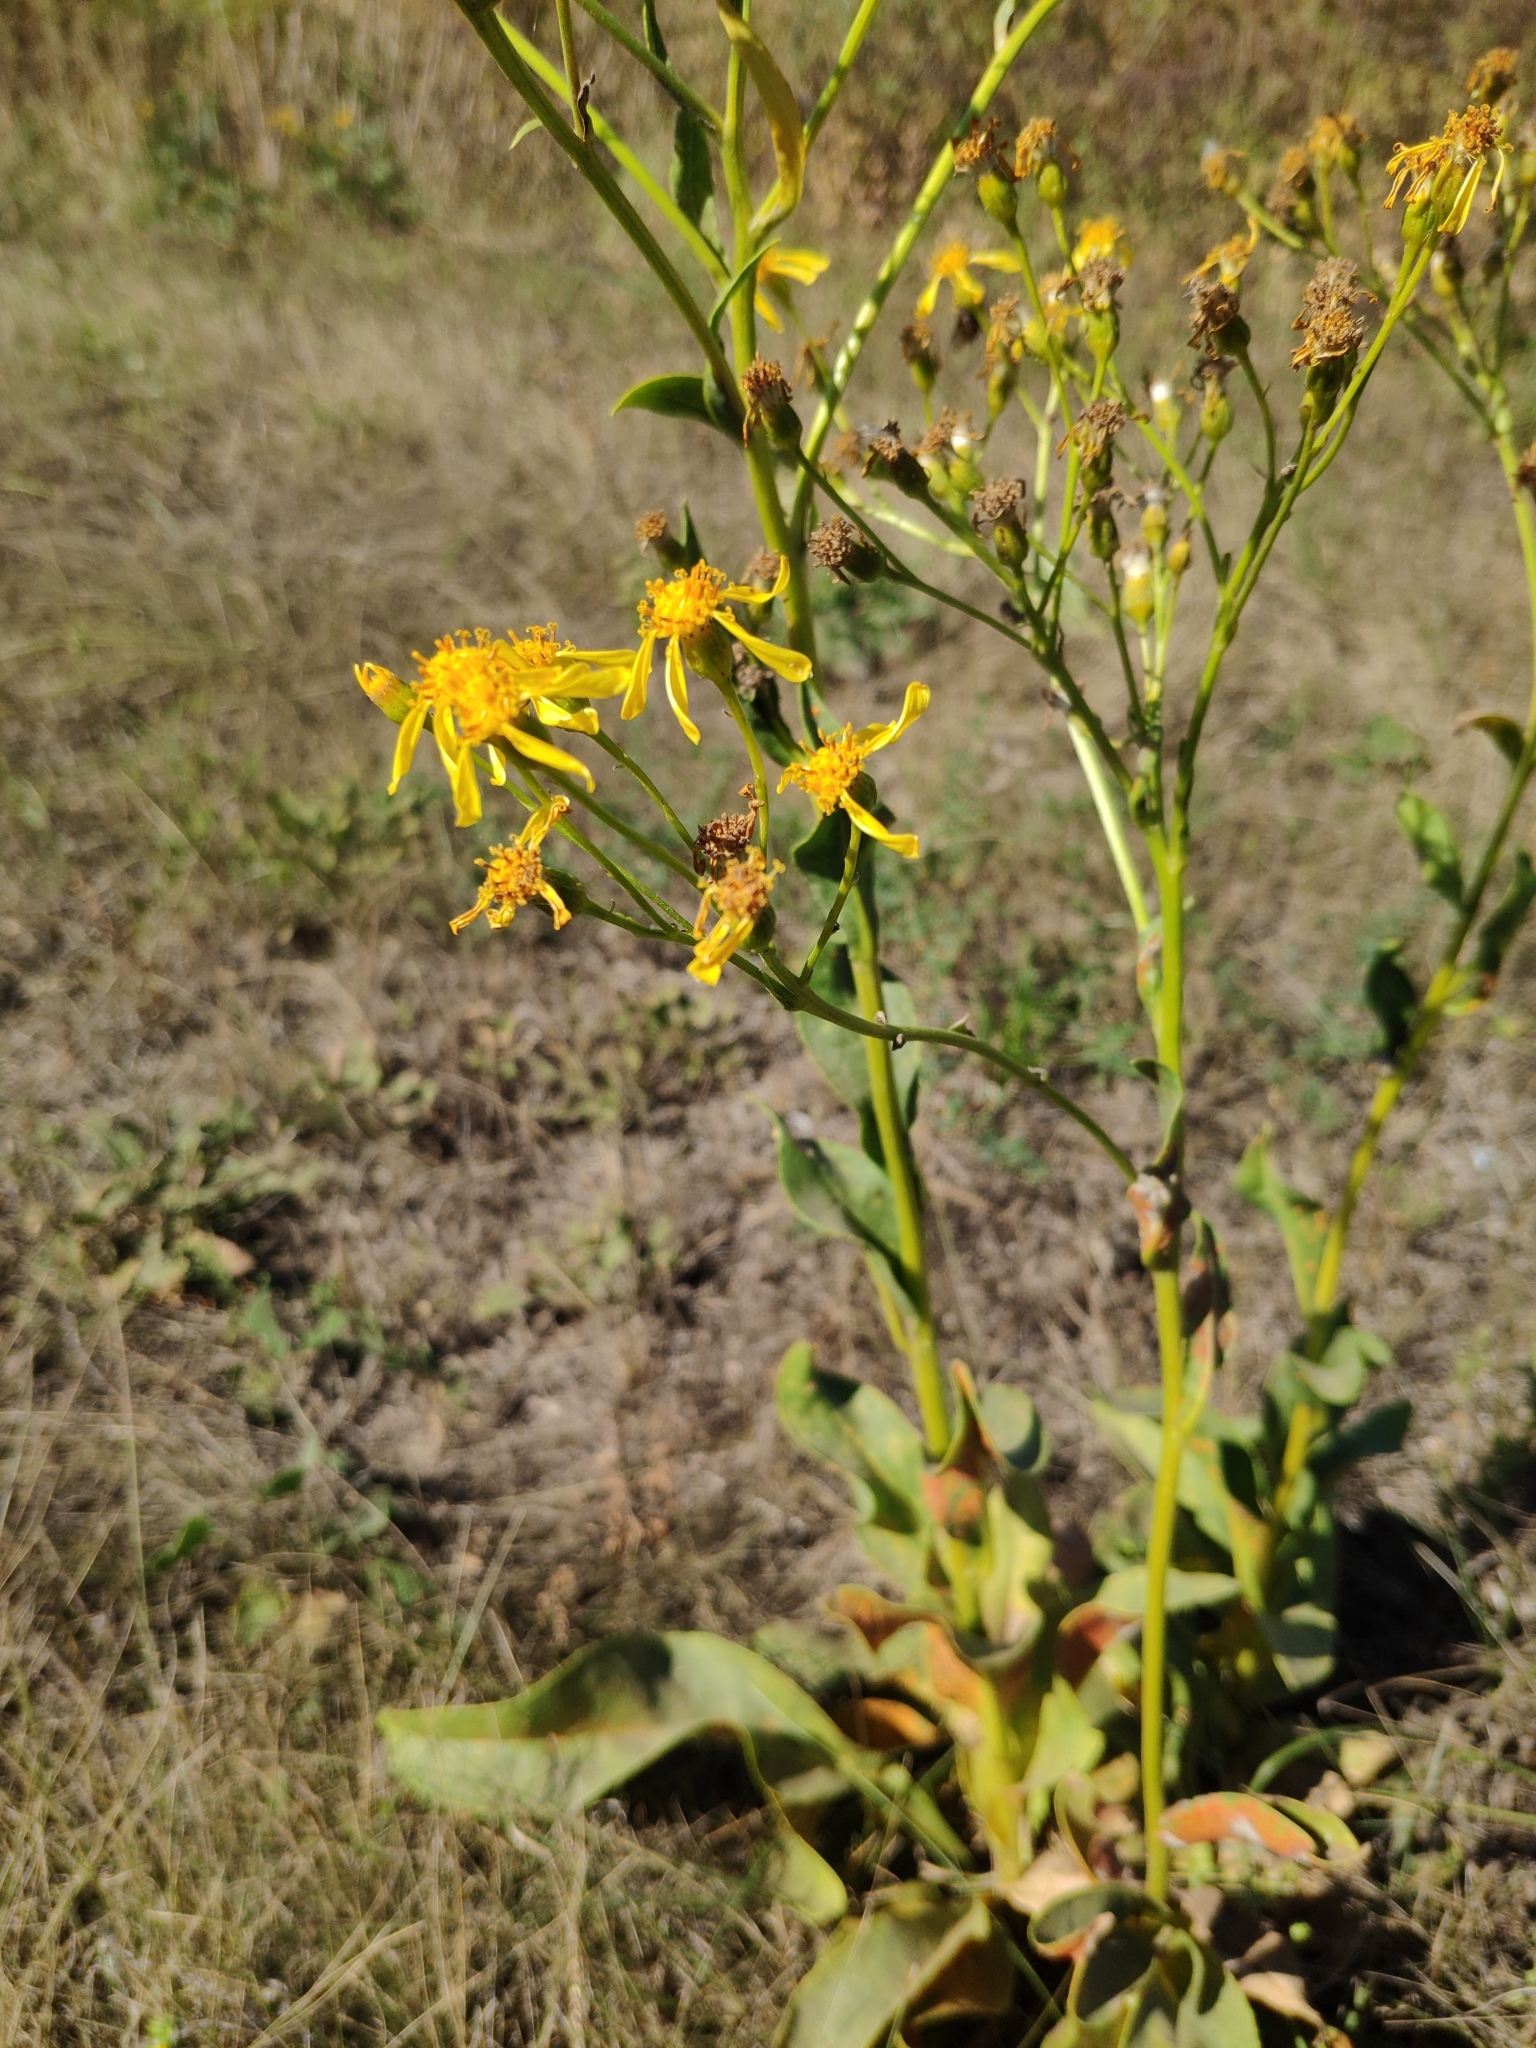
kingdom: Plantae
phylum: Tracheophyta
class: Magnoliopsida
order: Asterales
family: Asteraceae
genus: Senecio
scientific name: Senecio doria
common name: Golden ragwort
